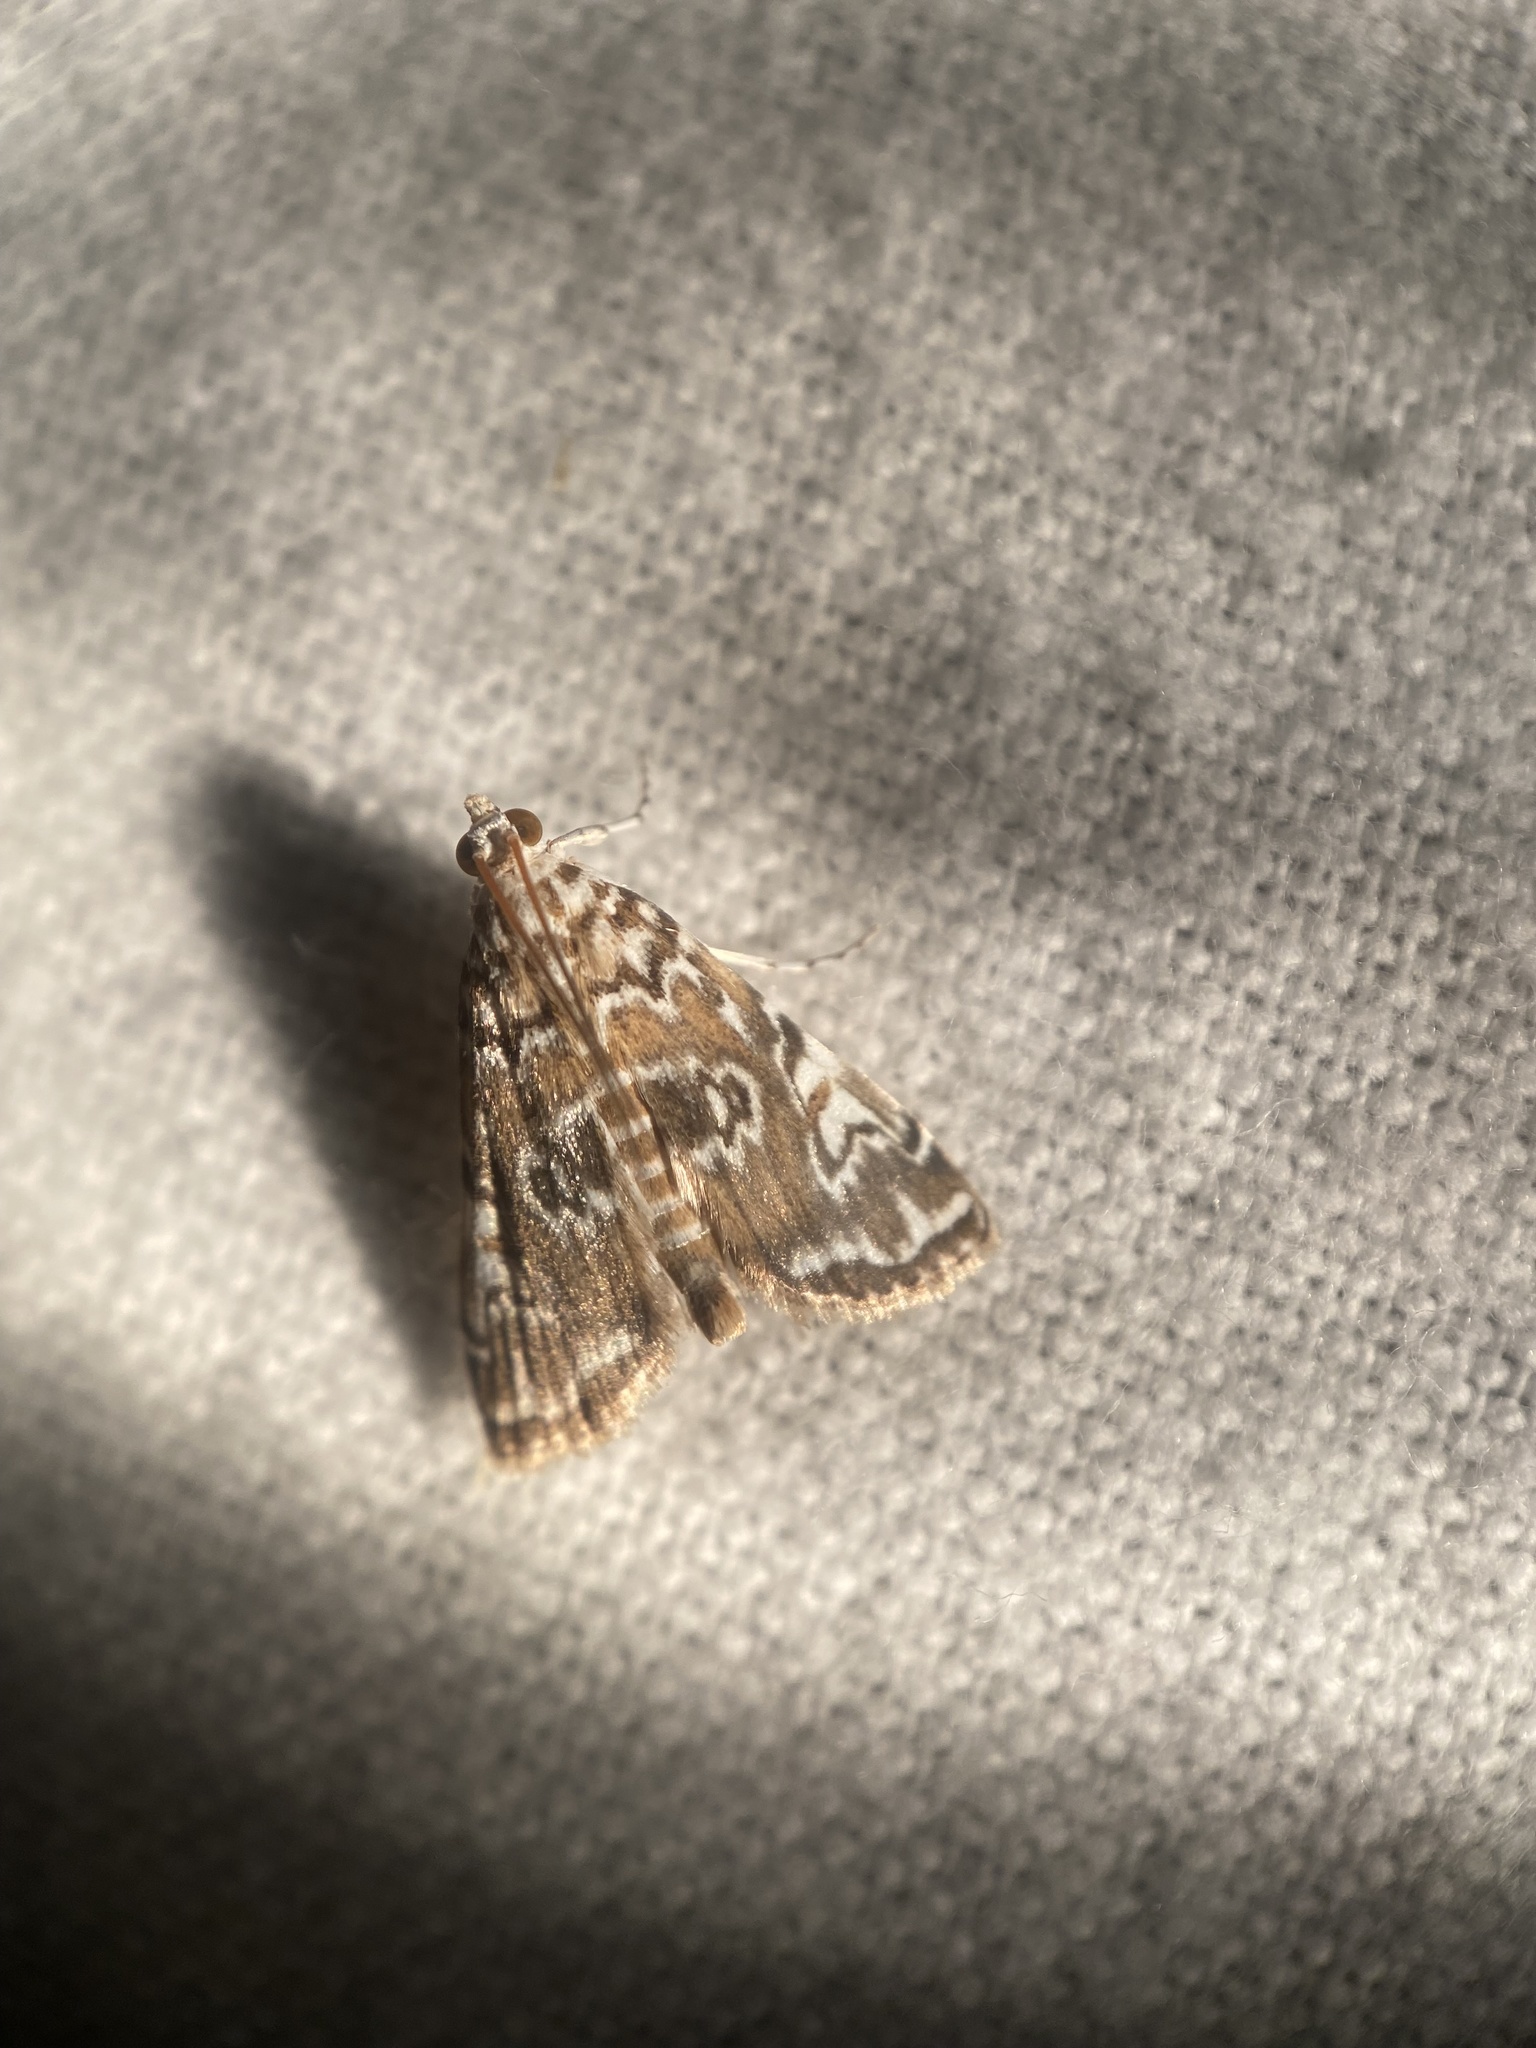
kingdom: Animalia
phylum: Arthropoda
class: Insecta
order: Lepidoptera
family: Crambidae
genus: Elophila
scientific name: Elophila gyralis
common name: Waterlily borer moth
